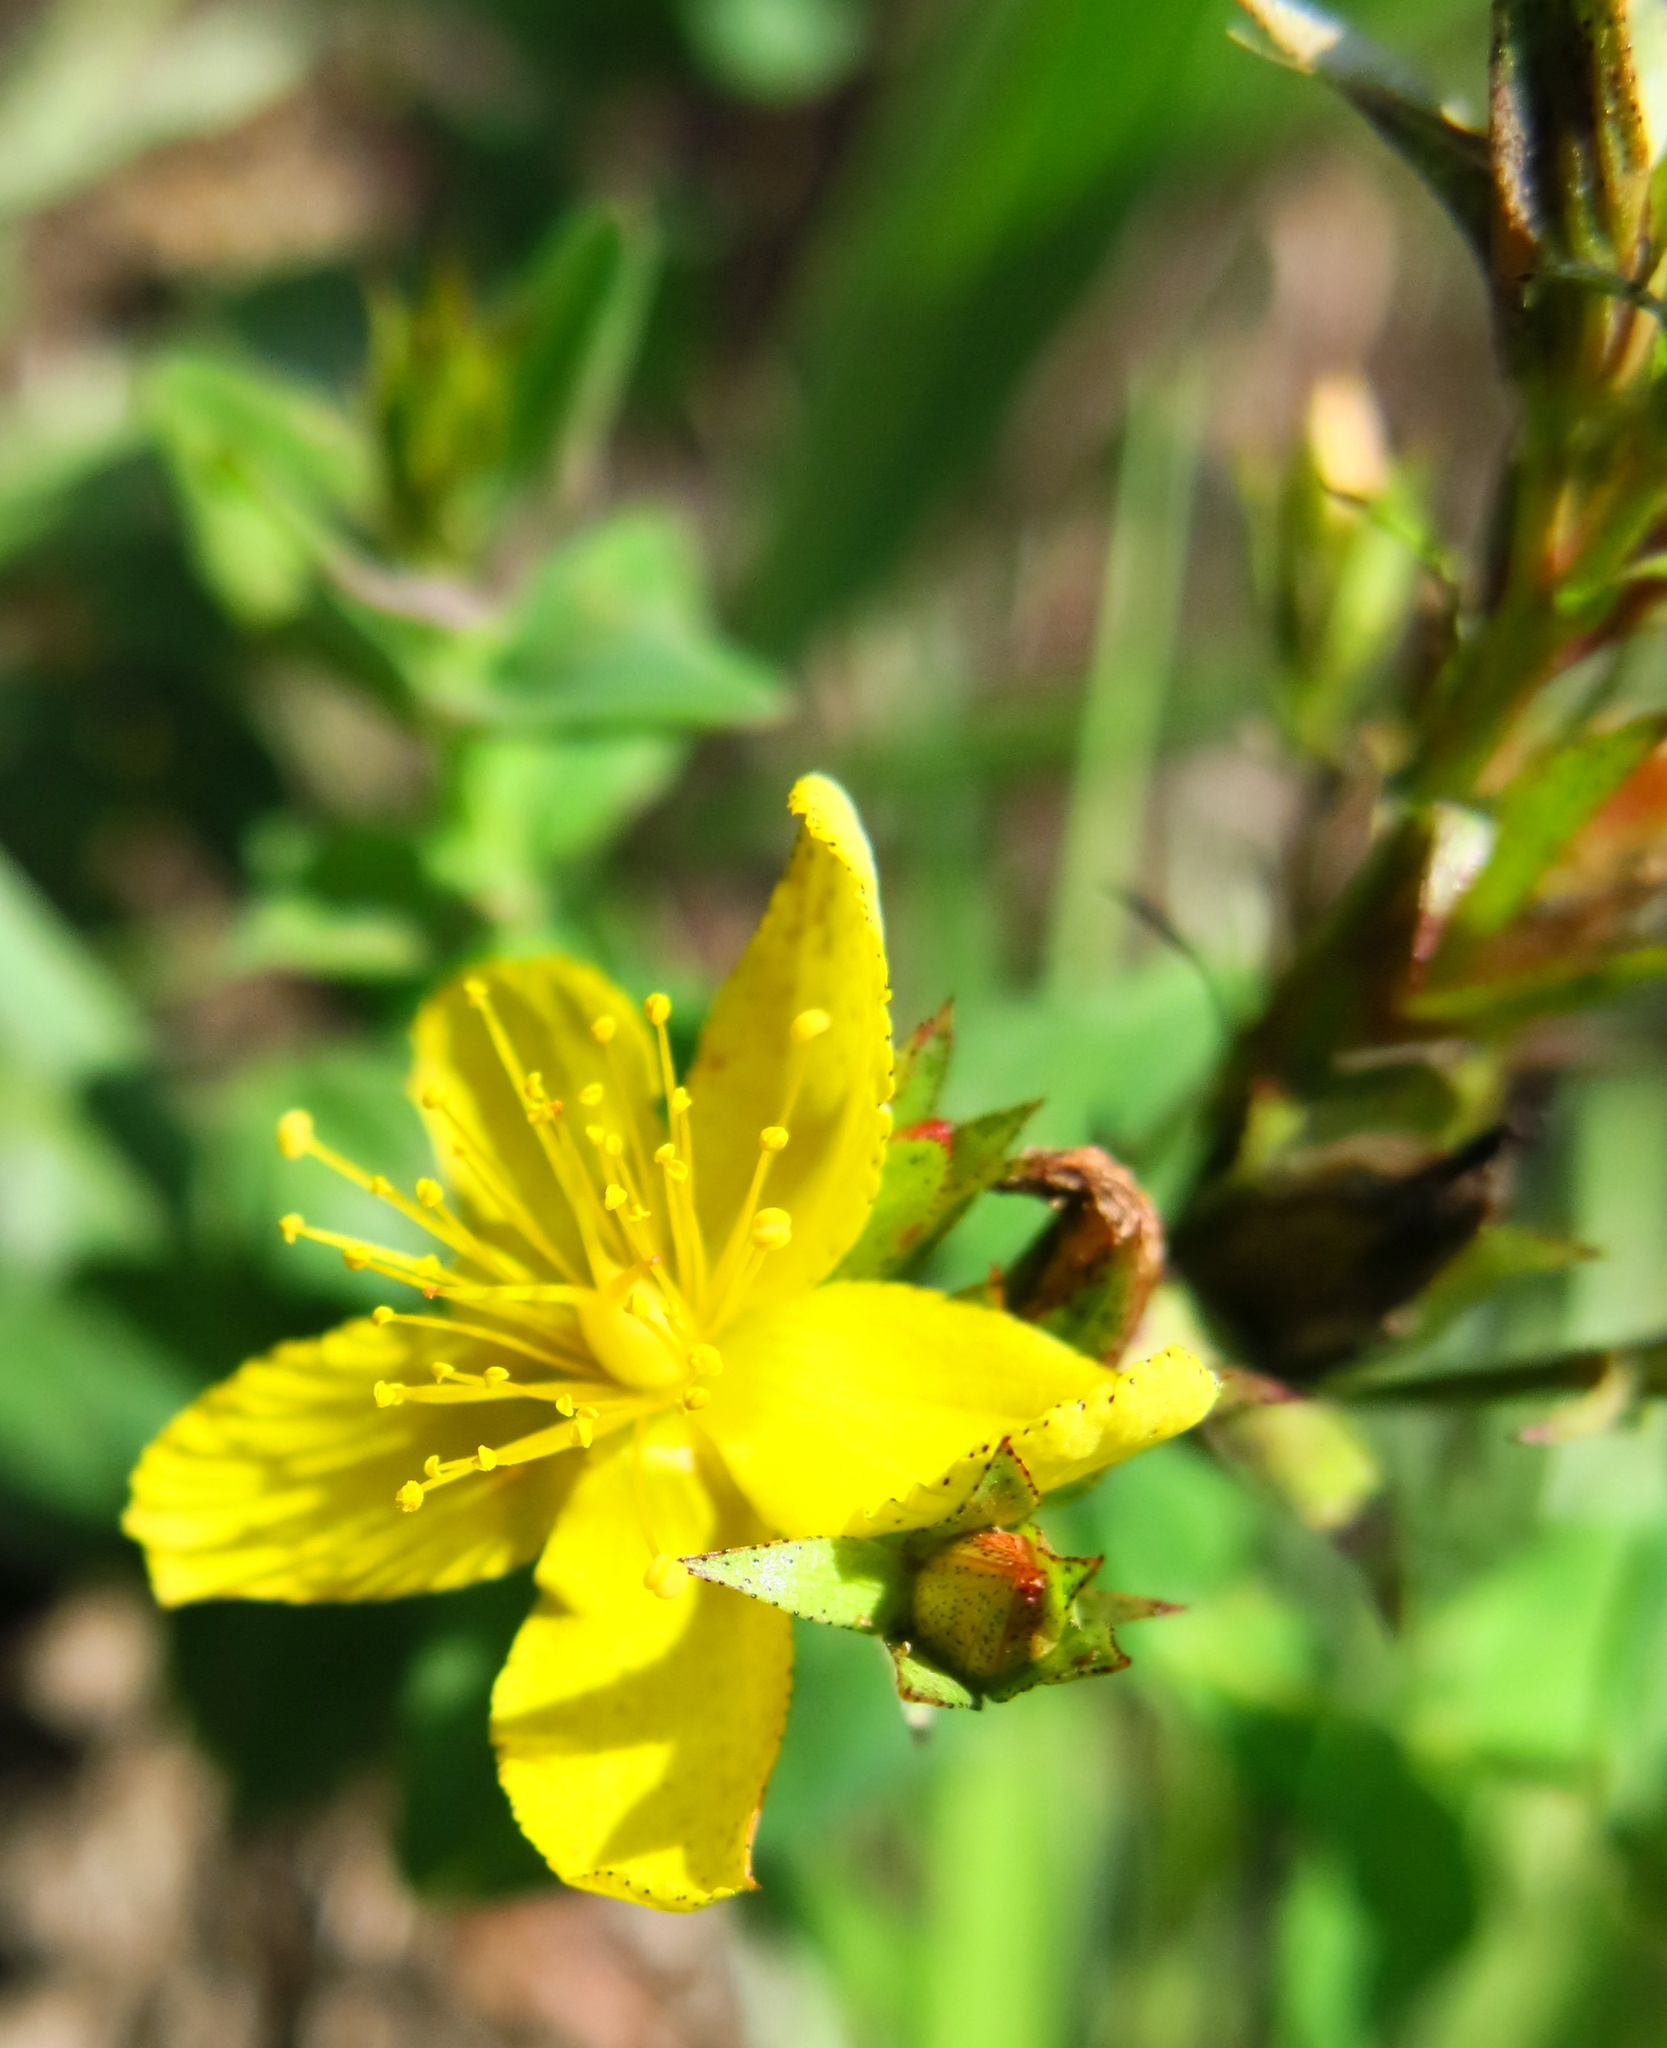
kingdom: Plantae
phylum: Tracheophyta
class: Magnoliopsida
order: Malpighiales
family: Hypericaceae
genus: Hypericum
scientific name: Hypericum aethiopicum
